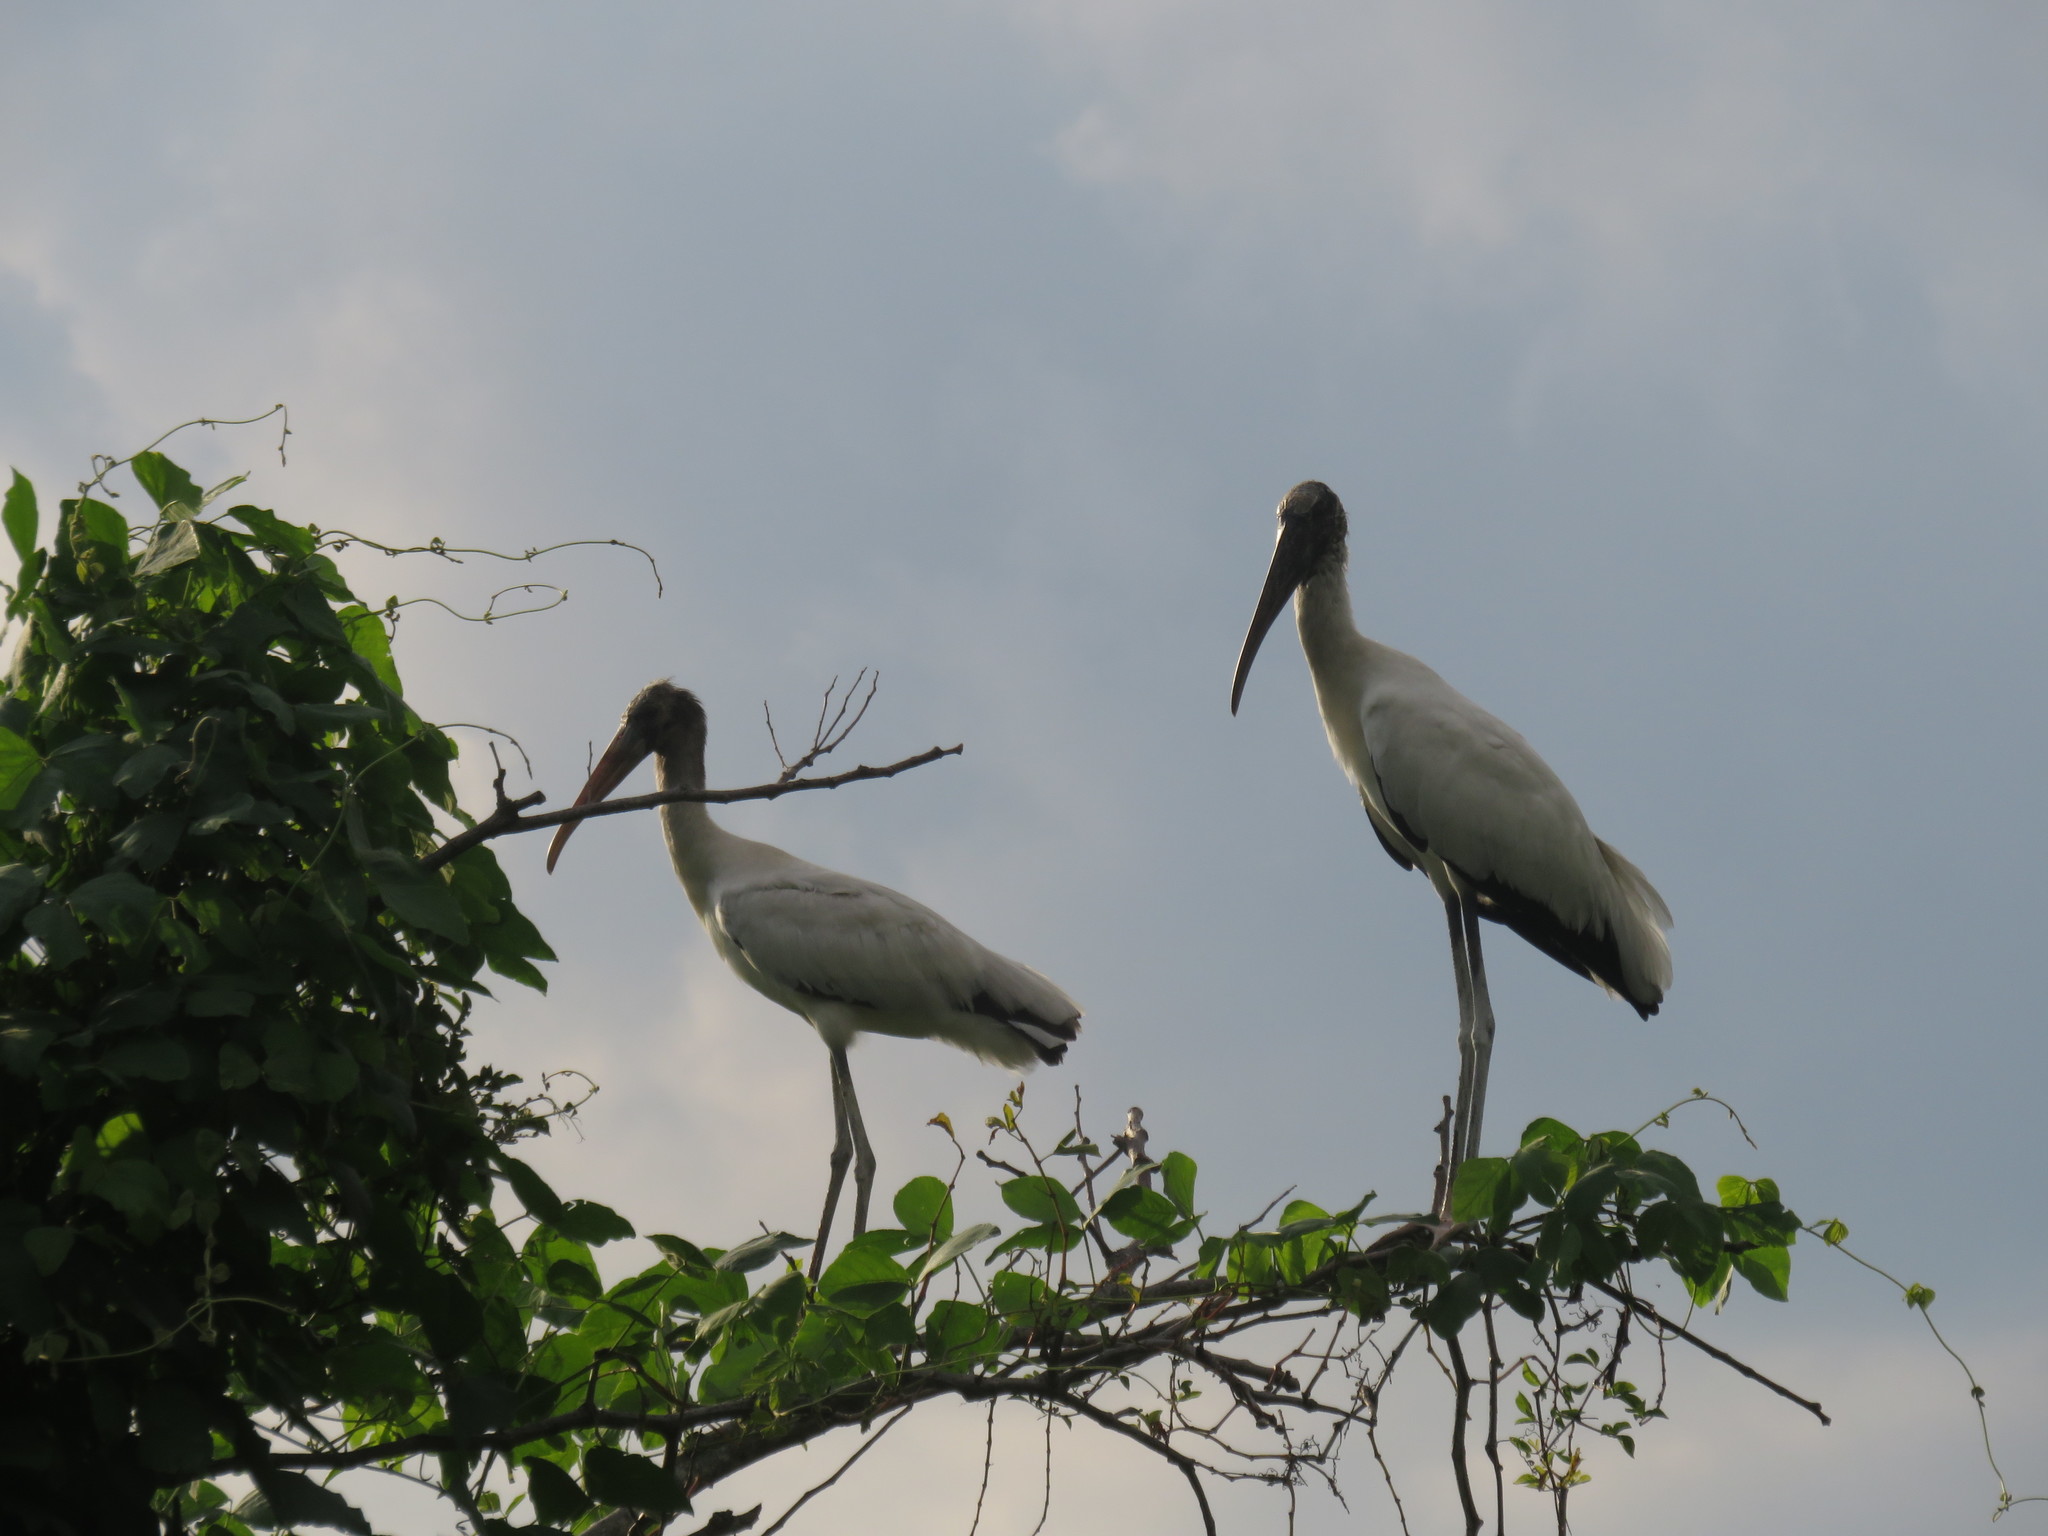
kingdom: Animalia
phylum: Chordata
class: Aves
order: Ciconiiformes
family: Ciconiidae
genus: Mycteria
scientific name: Mycteria americana
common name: Wood stork
